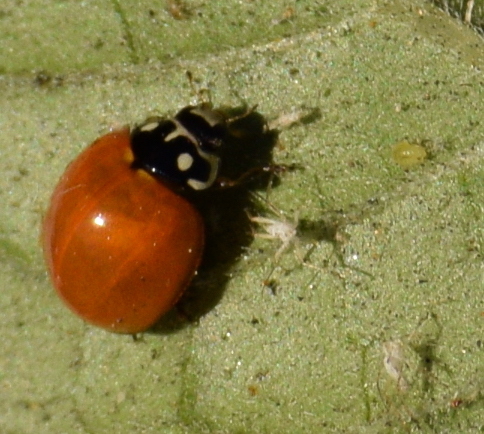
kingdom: Animalia
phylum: Arthropoda
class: Insecta
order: Coleoptera
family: Coccinellidae
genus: Cycloneda
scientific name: Cycloneda sanguinea
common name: Ladybird beetle
